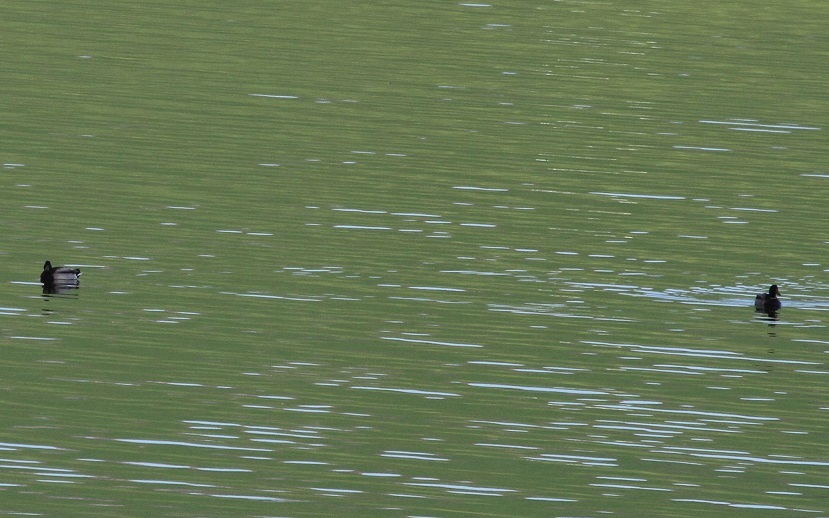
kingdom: Animalia
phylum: Chordata
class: Aves
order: Anseriformes
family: Anatidae
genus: Anas
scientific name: Anas platyrhynchos
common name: Mallard
